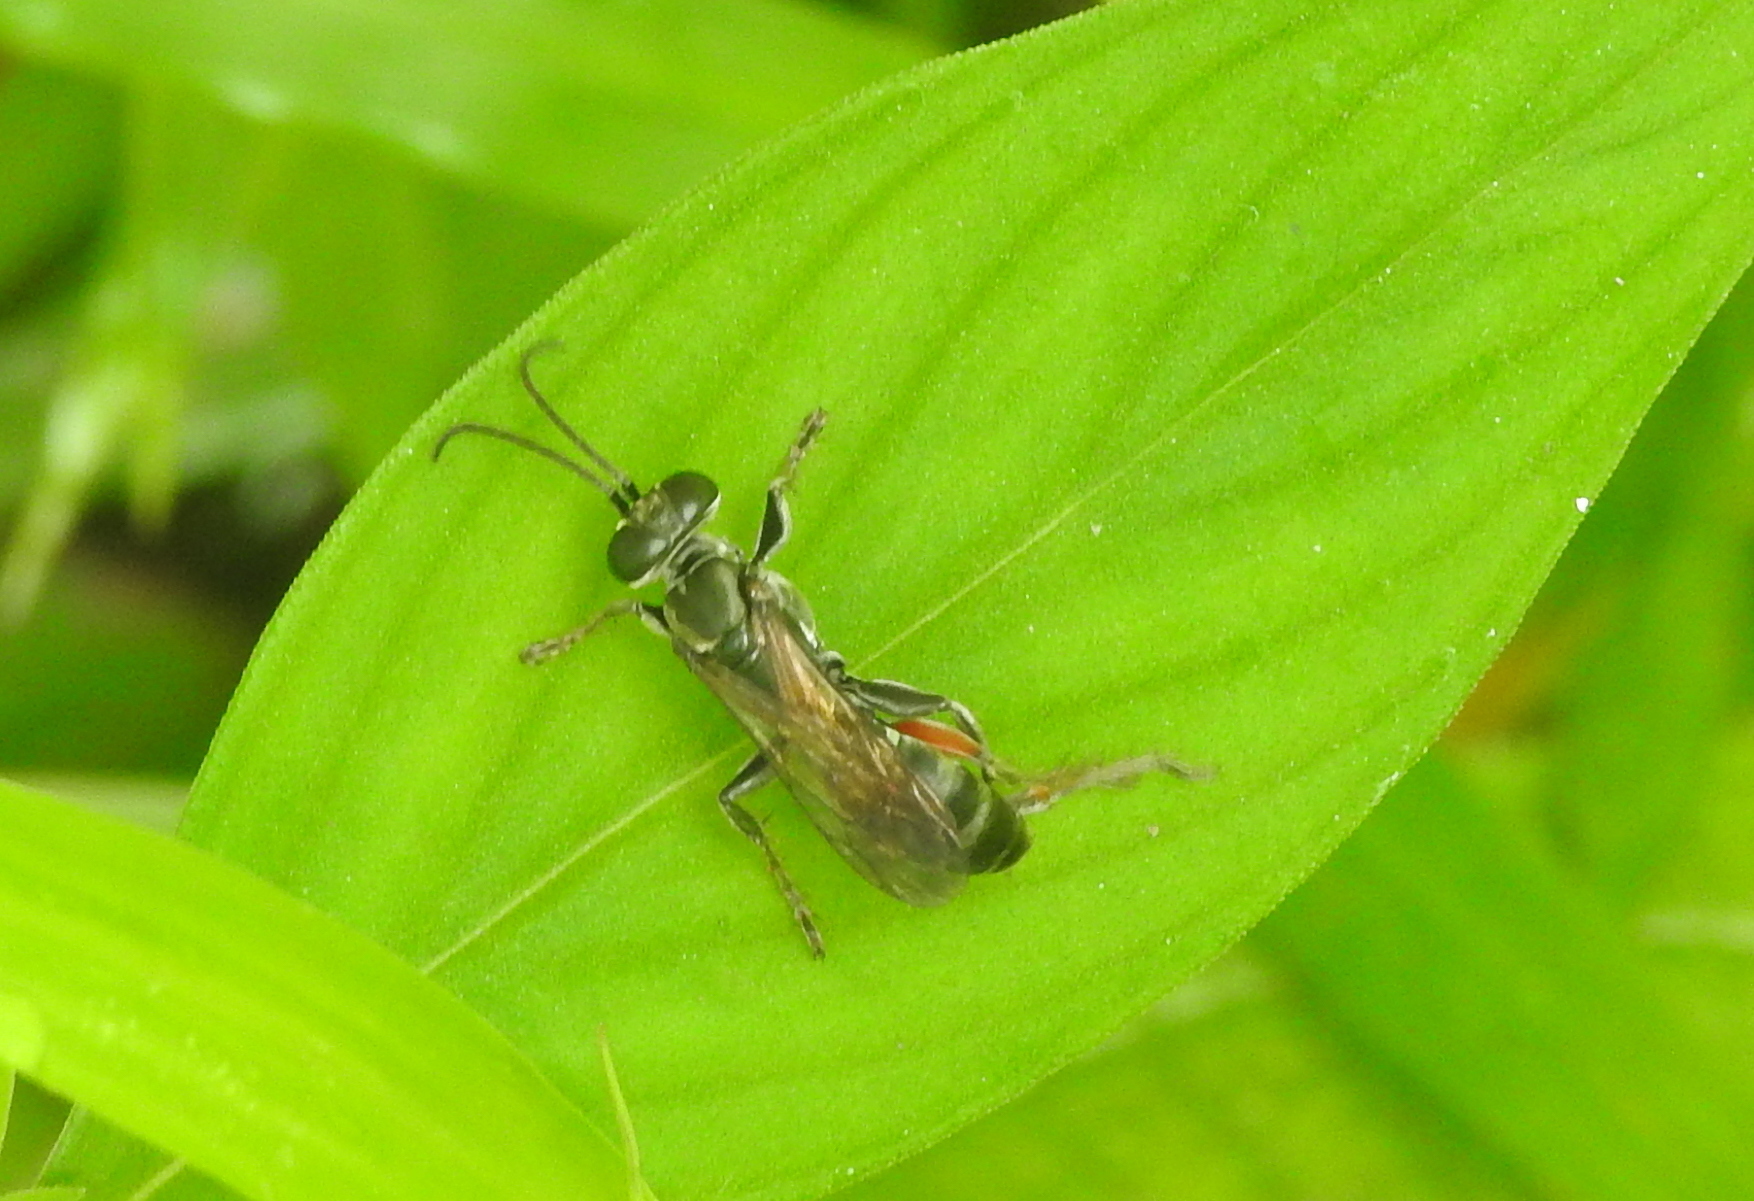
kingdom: Animalia
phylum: Arthropoda
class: Insecta
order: Hymenoptera
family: Crabronidae
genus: Liris
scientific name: Liris subtessellatus
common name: Crabronid wasp
